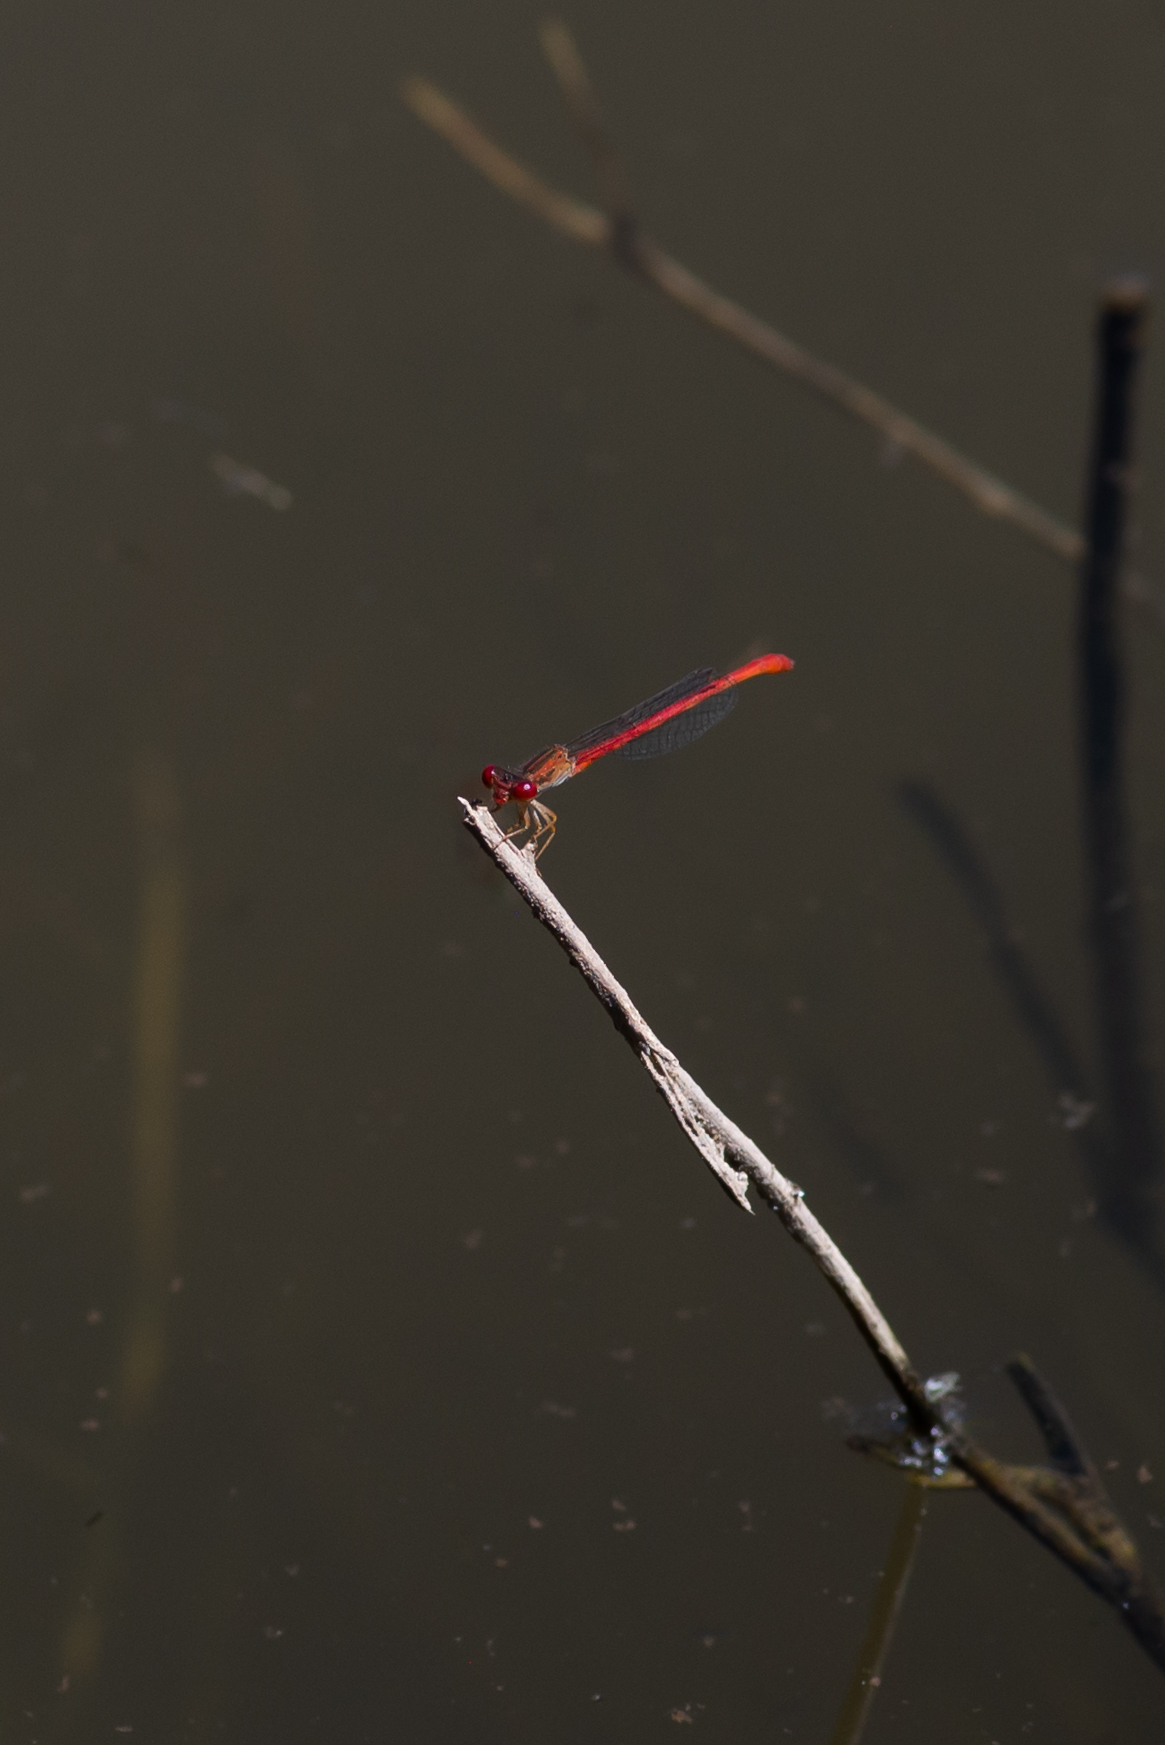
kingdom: Animalia
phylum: Arthropoda
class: Insecta
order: Odonata
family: Coenagrionidae
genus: Telebasis
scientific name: Telebasis salva
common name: Desert firetail
